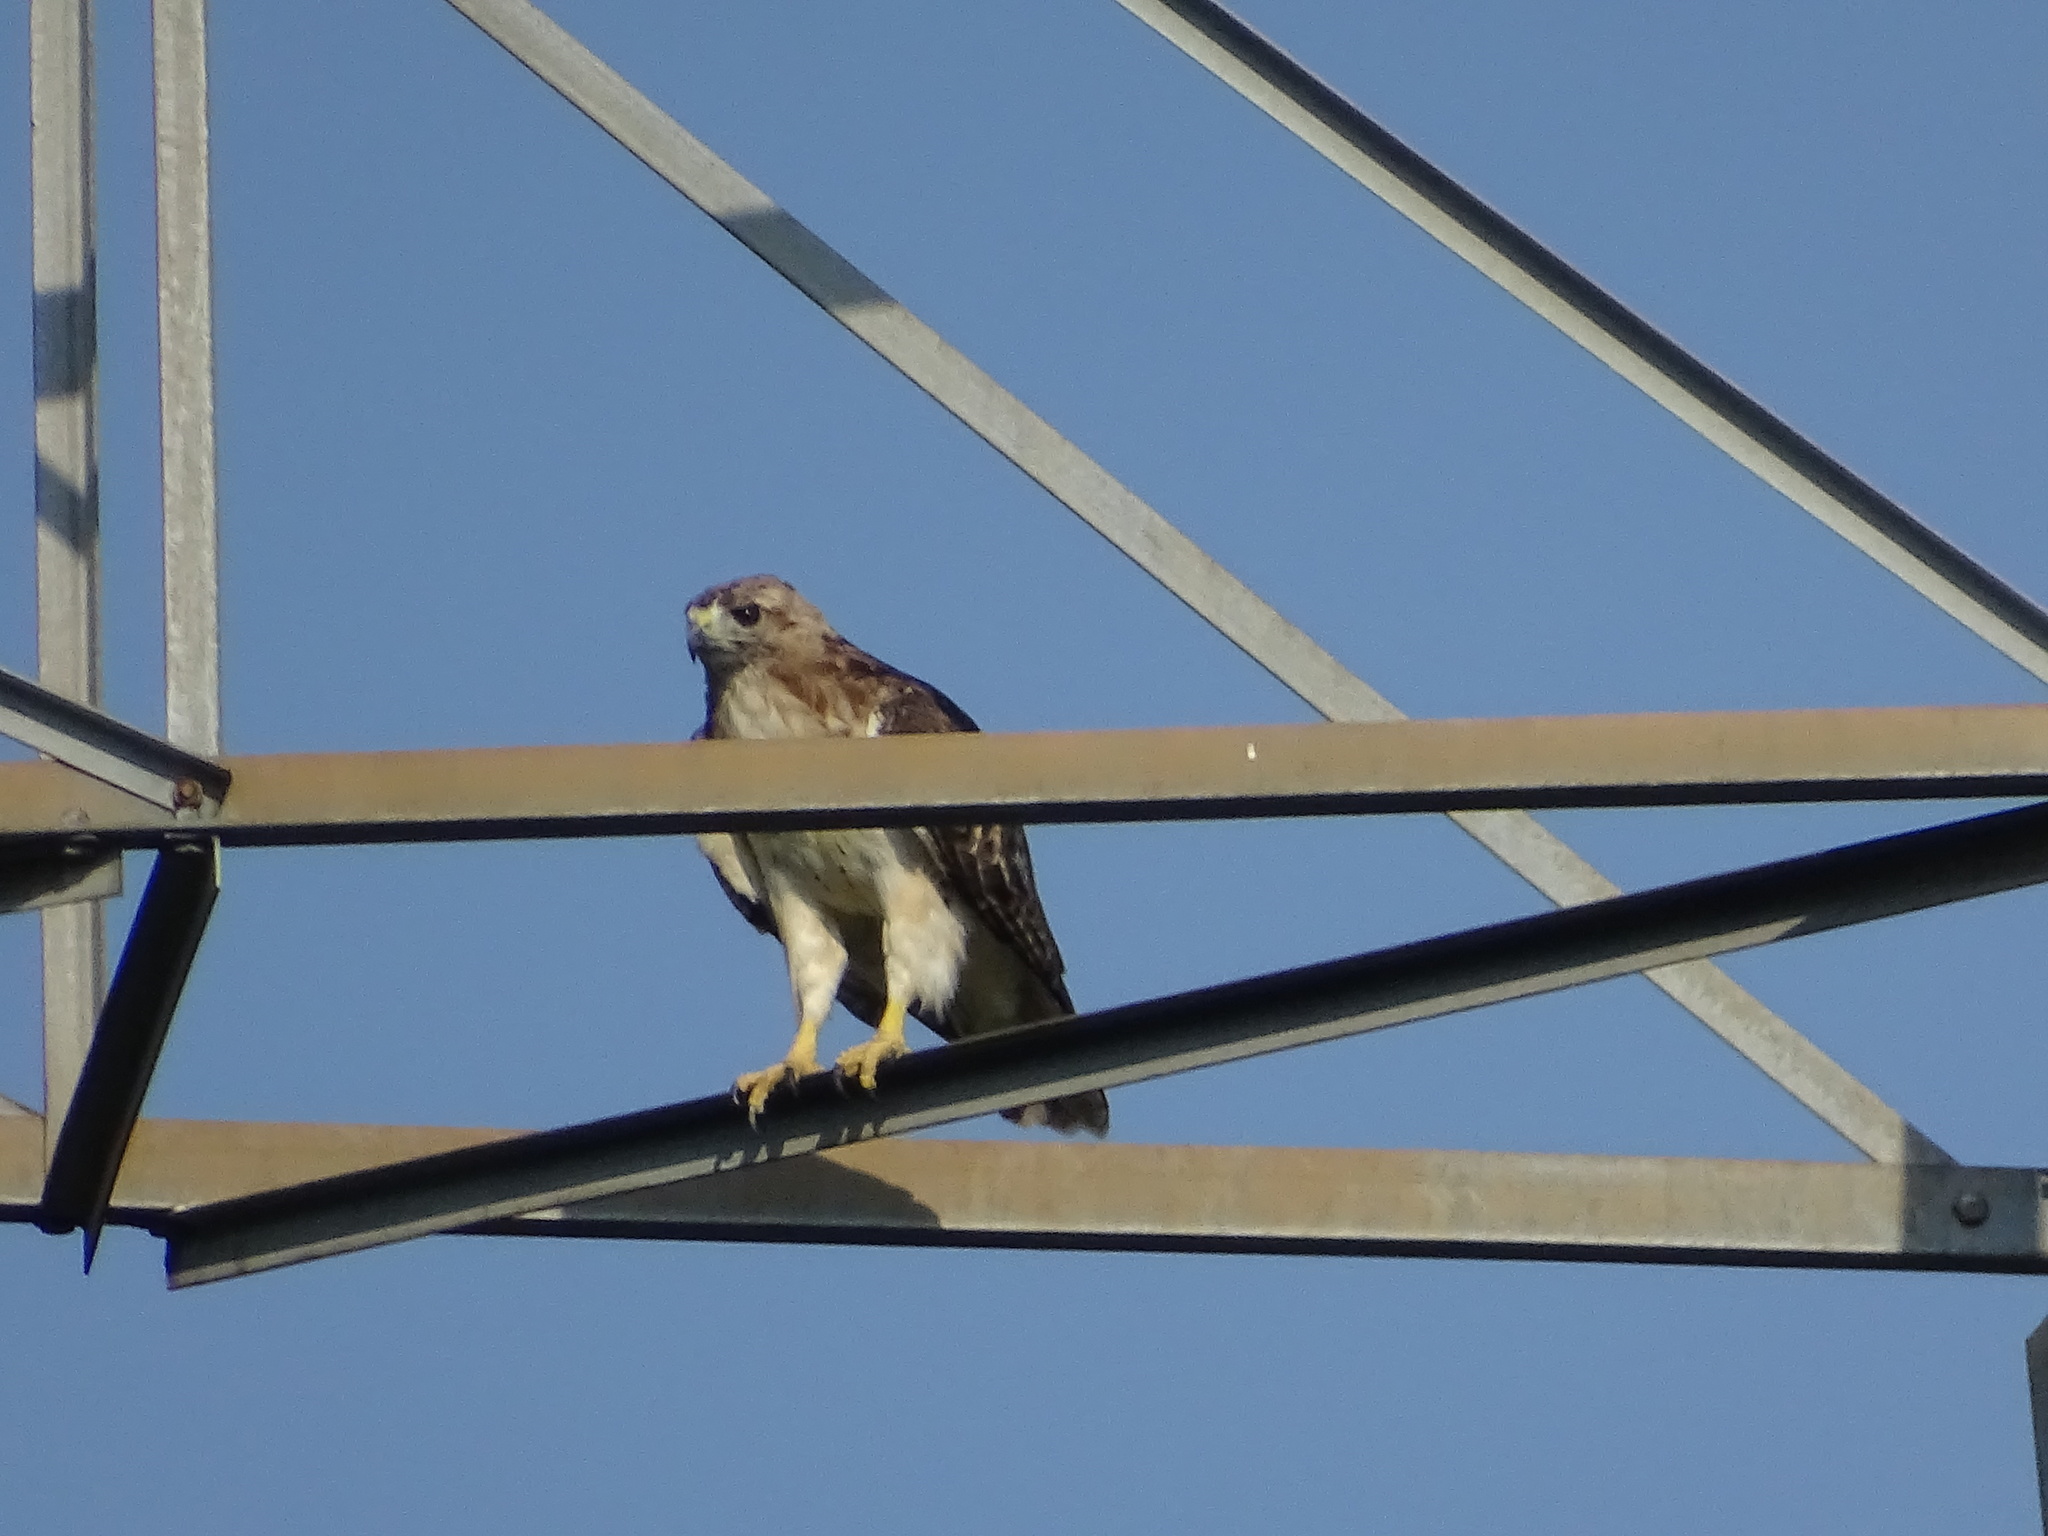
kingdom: Animalia
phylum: Chordata
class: Aves
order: Accipitriformes
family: Accipitridae
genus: Buteo
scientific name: Buteo jamaicensis
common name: Red-tailed hawk
